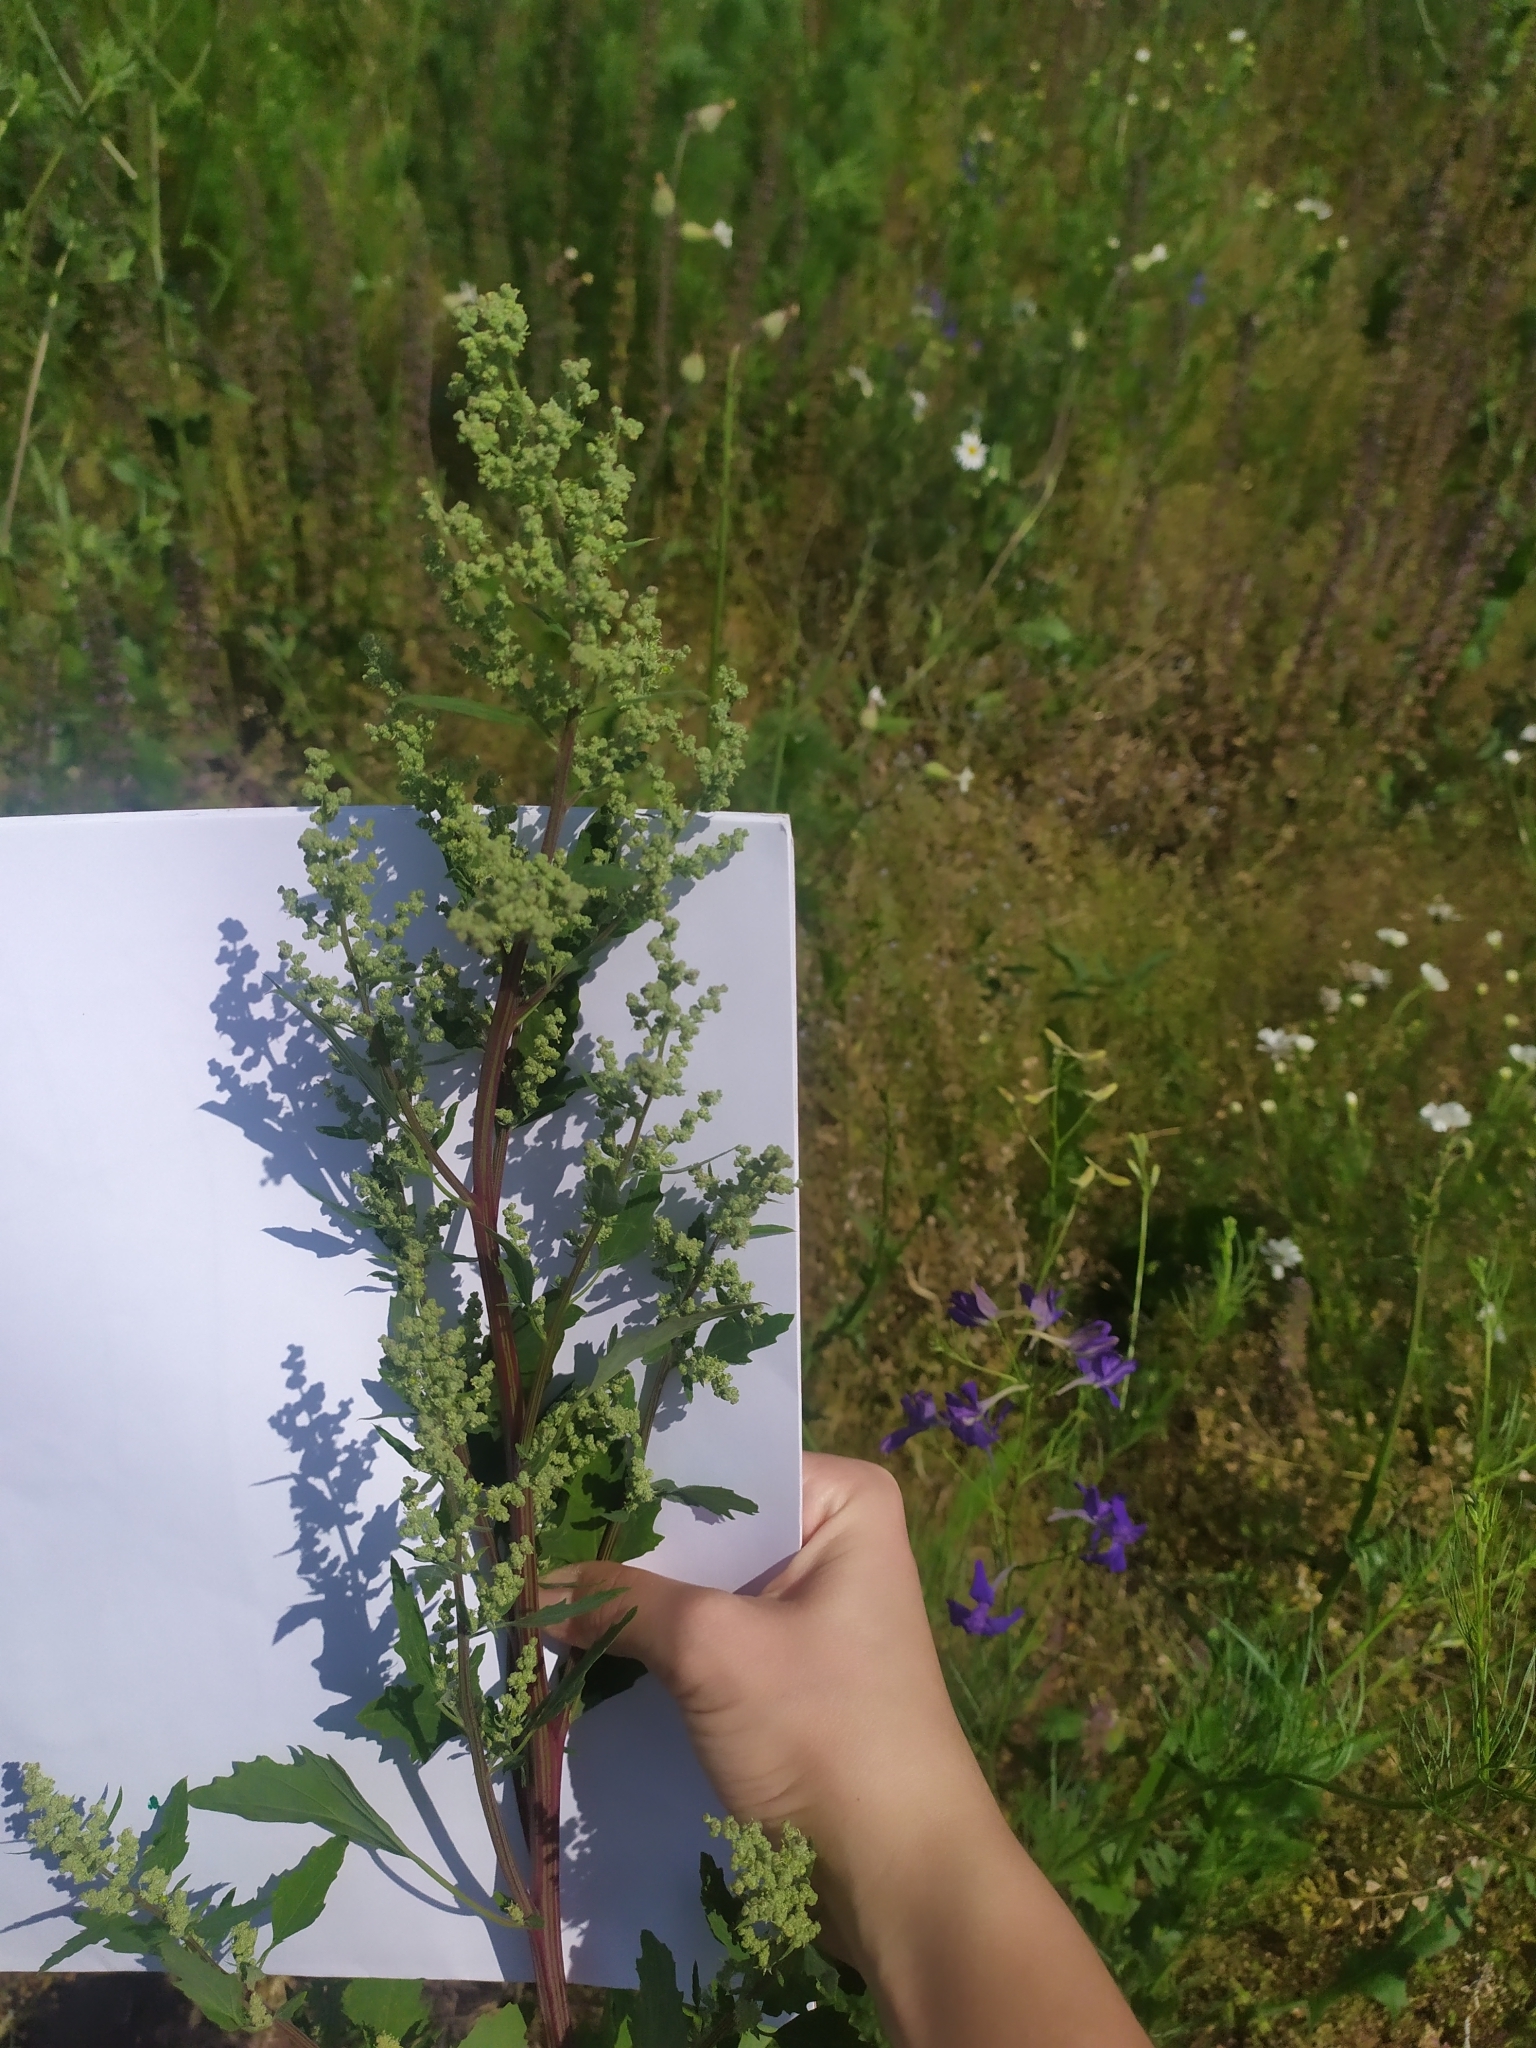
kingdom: Plantae
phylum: Tracheophyta
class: Magnoliopsida
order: Caryophyllales
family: Amaranthaceae
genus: Chenopodium
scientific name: Chenopodium album
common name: Fat-hen
